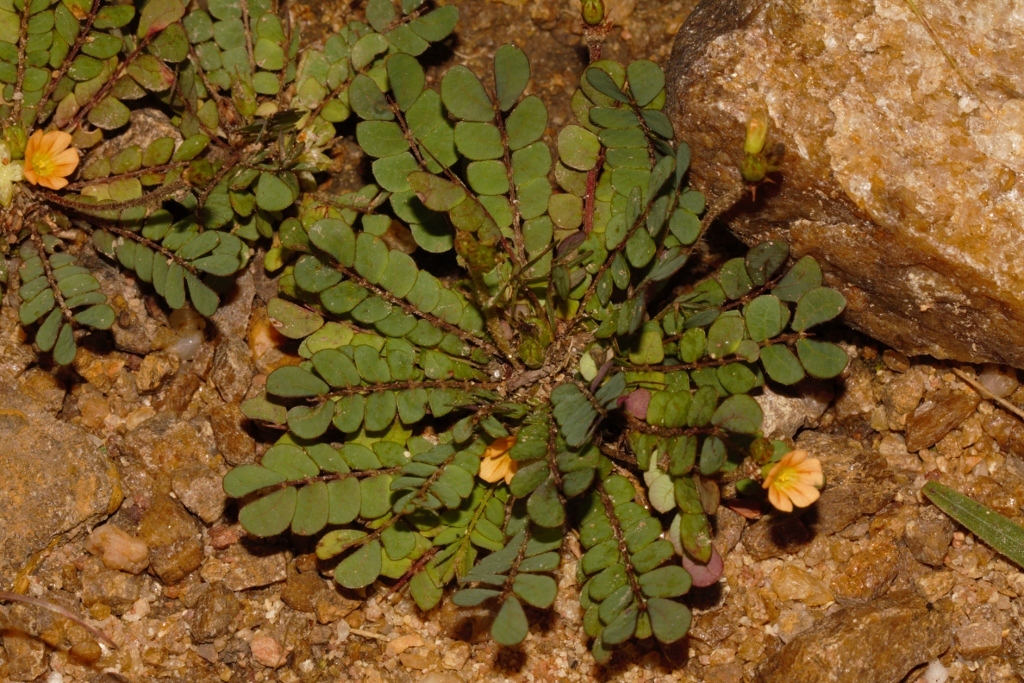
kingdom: Plantae
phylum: Tracheophyta
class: Magnoliopsida
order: Oxalidales
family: Oxalidaceae
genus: Biophytum
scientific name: Biophytum umbraculum
